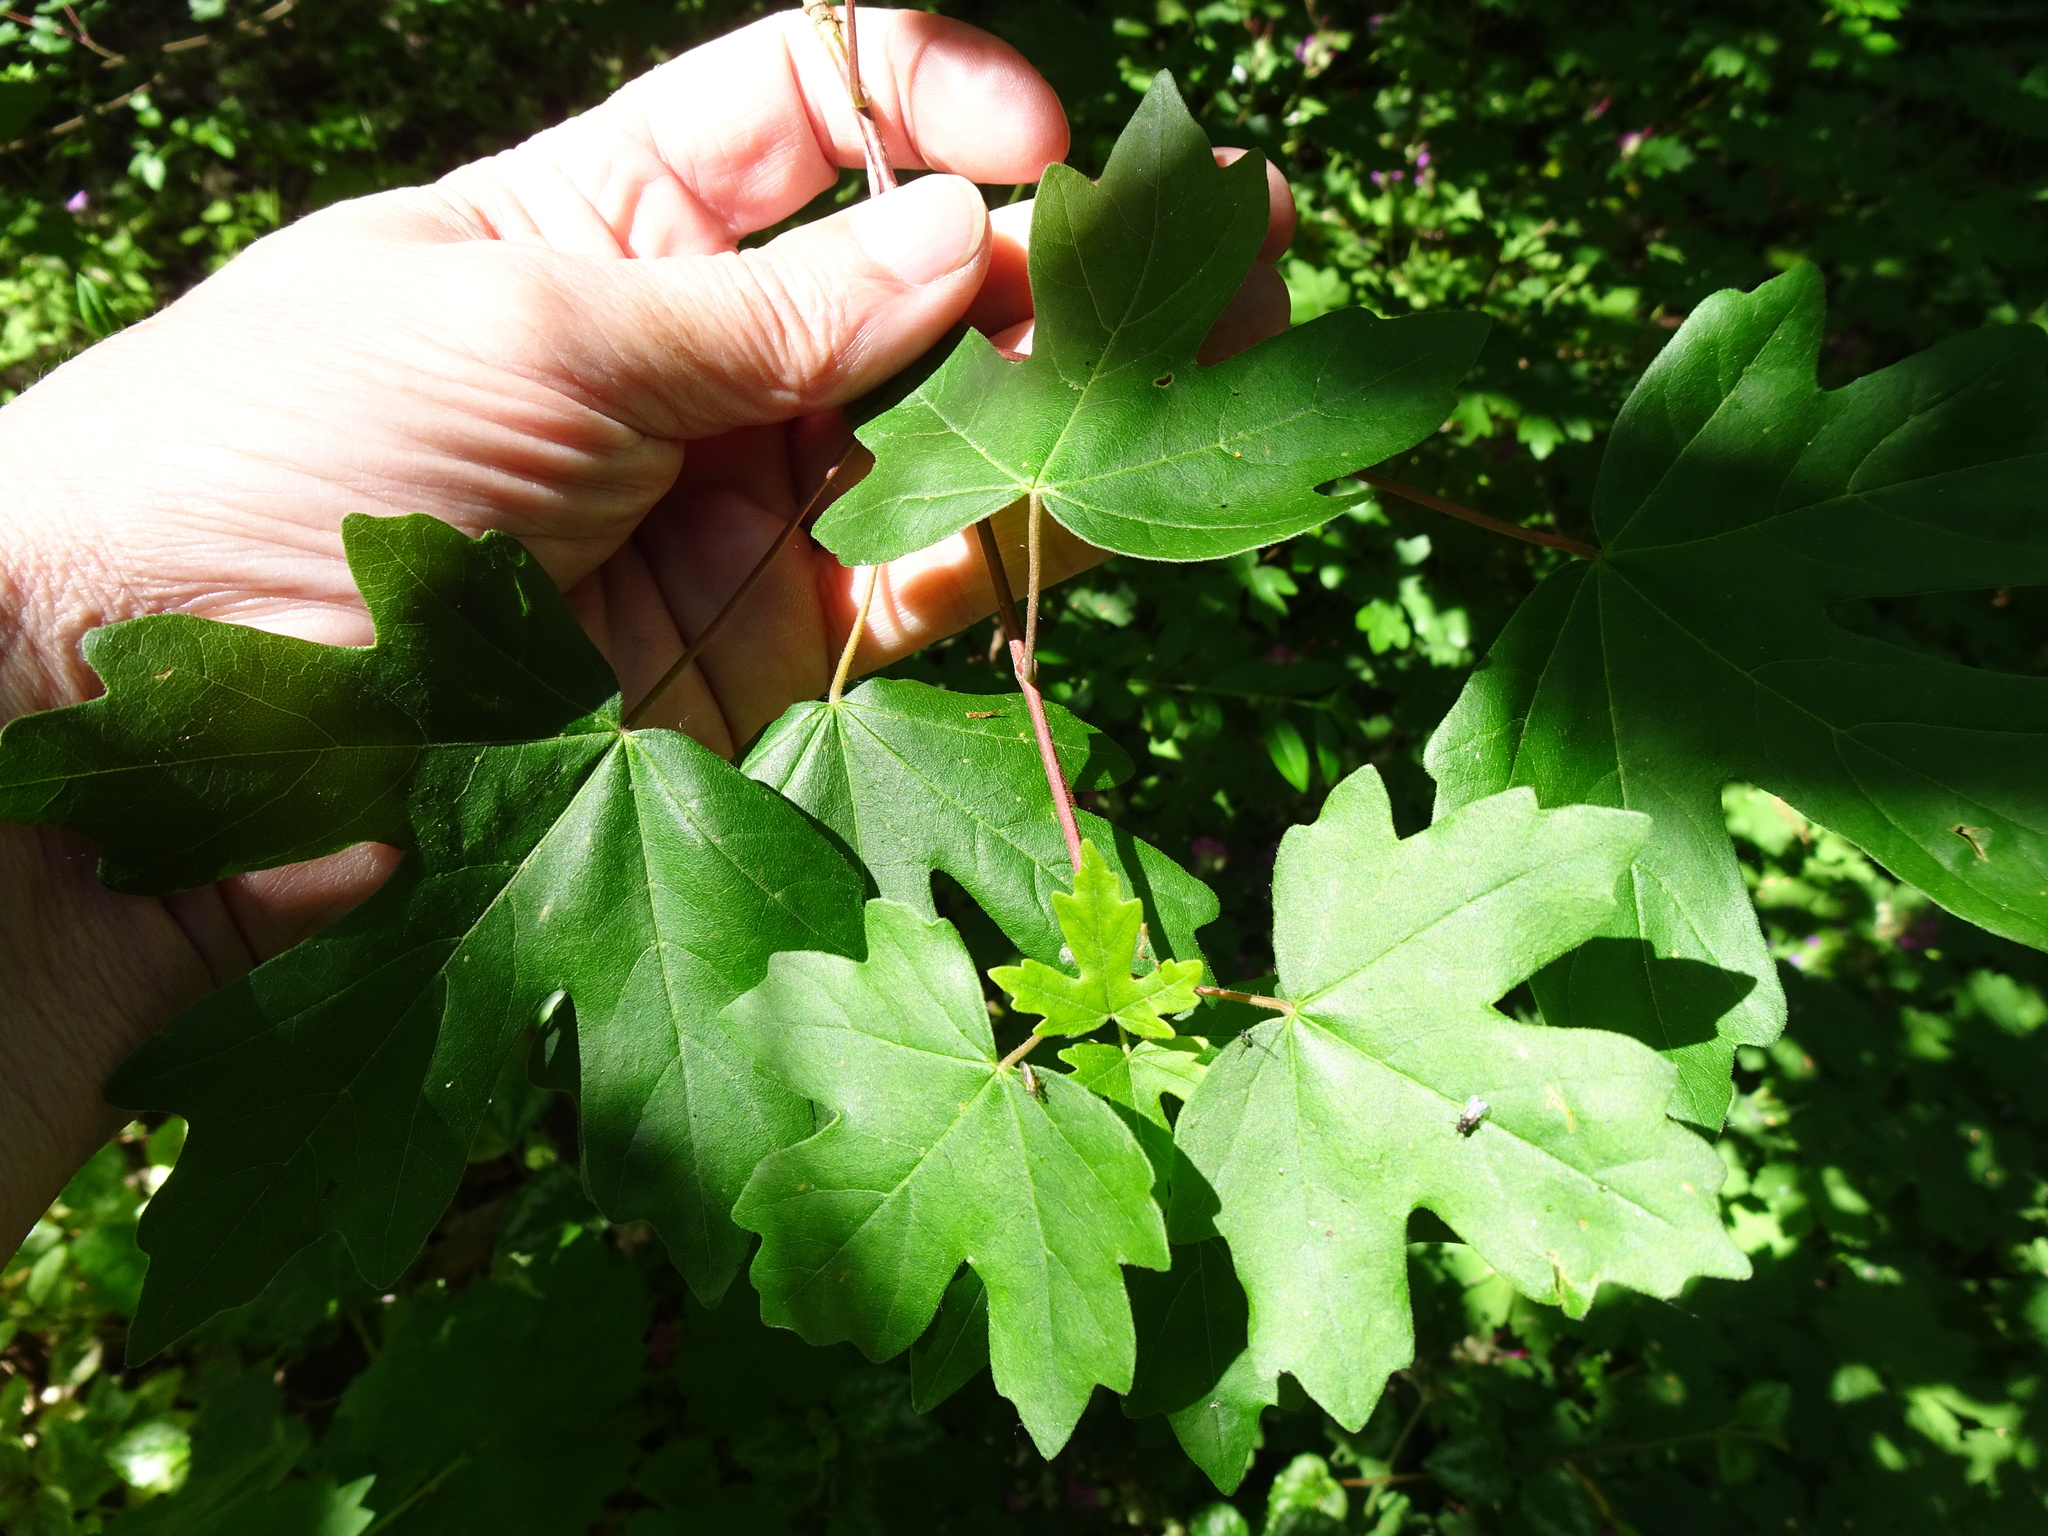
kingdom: Plantae
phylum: Tracheophyta
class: Magnoliopsida
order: Sapindales
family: Sapindaceae
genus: Acer
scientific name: Acer campestre
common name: Field maple
